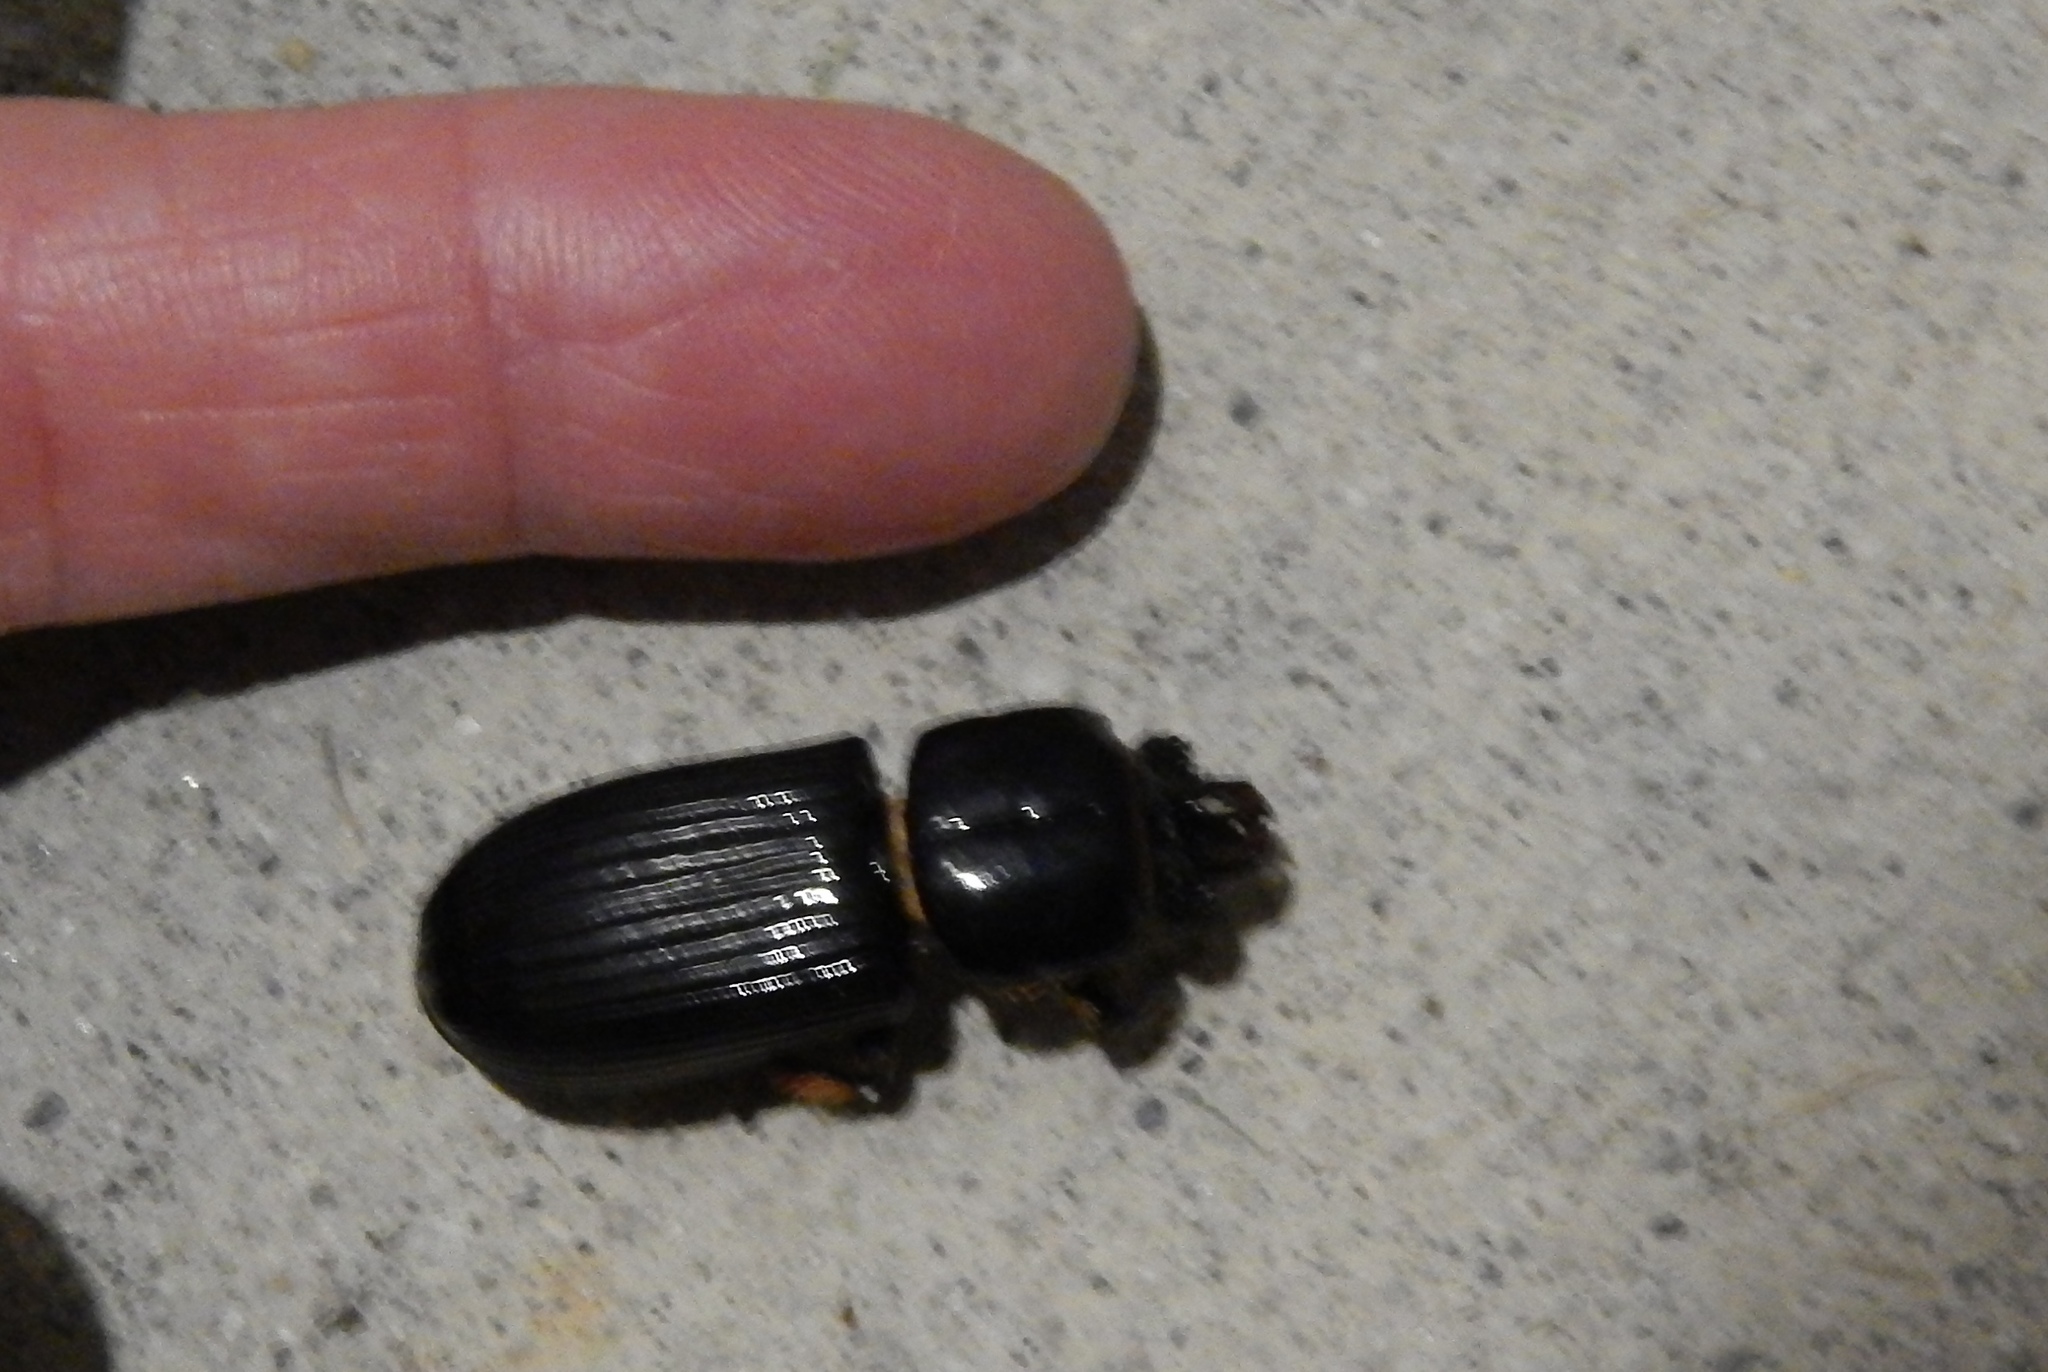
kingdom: Animalia
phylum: Arthropoda
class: Insecta
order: Coleoptera
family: Passalidae
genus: Odontotaenius
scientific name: Odontotaenius disjunctus
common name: Patent leather beetle
